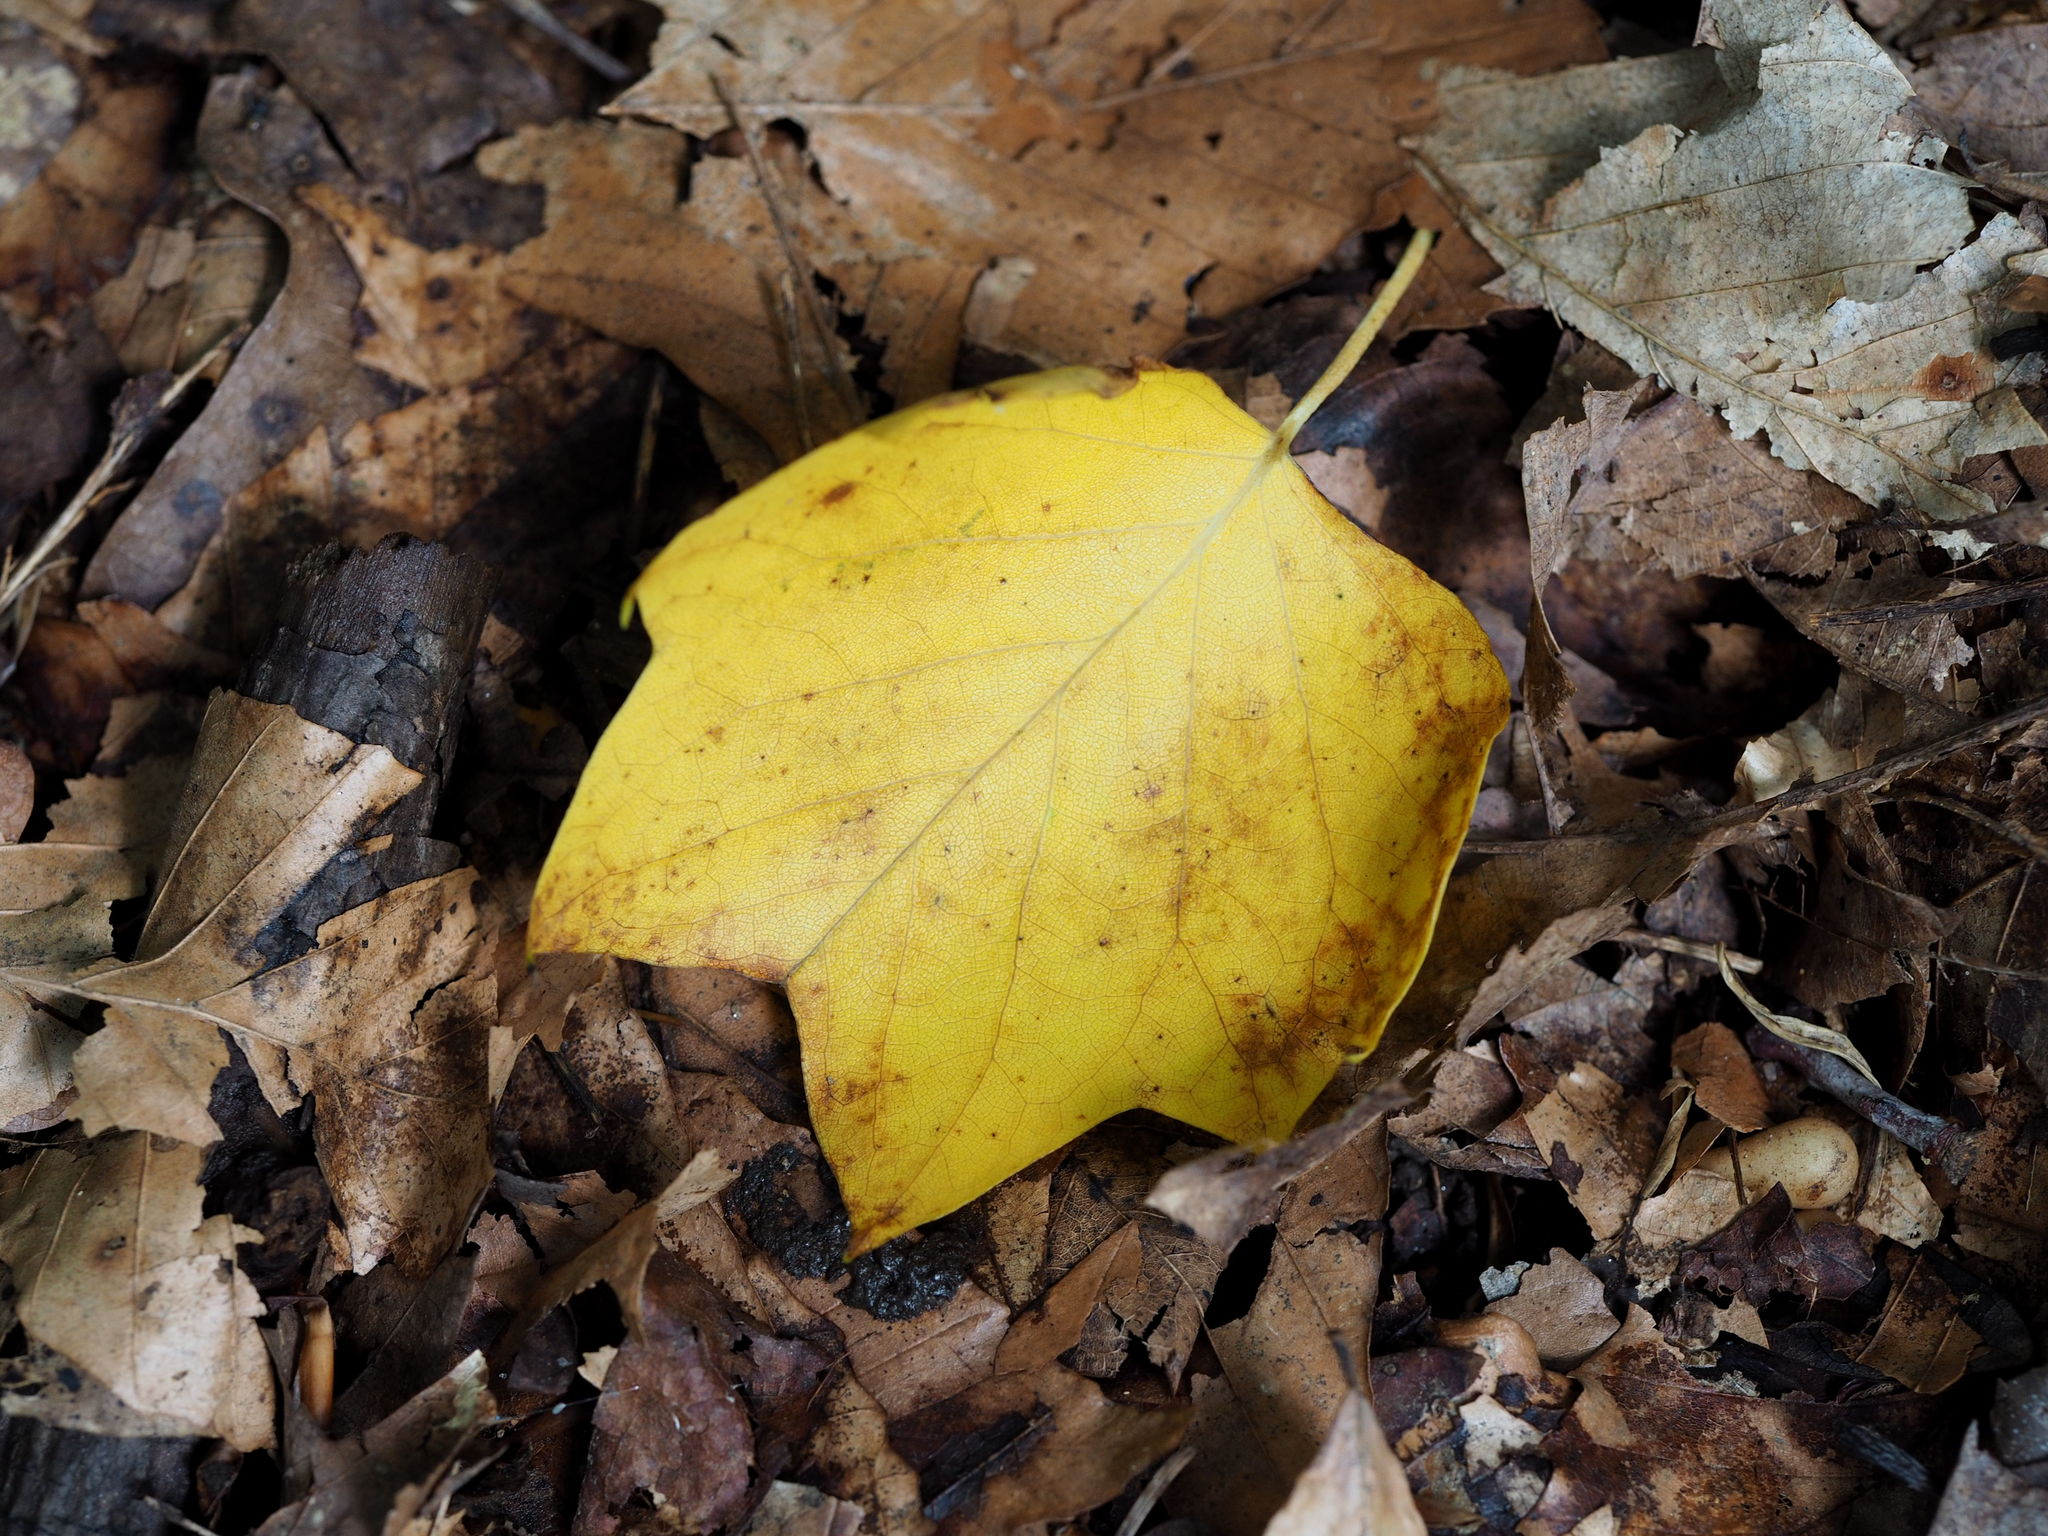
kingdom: Plantae
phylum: Tracheophyta
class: Magnoliopsida
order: Magnoliales
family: Magnoliaceae
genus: Liriodendron
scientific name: Liriodendron tulipifera
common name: Tulip tree
